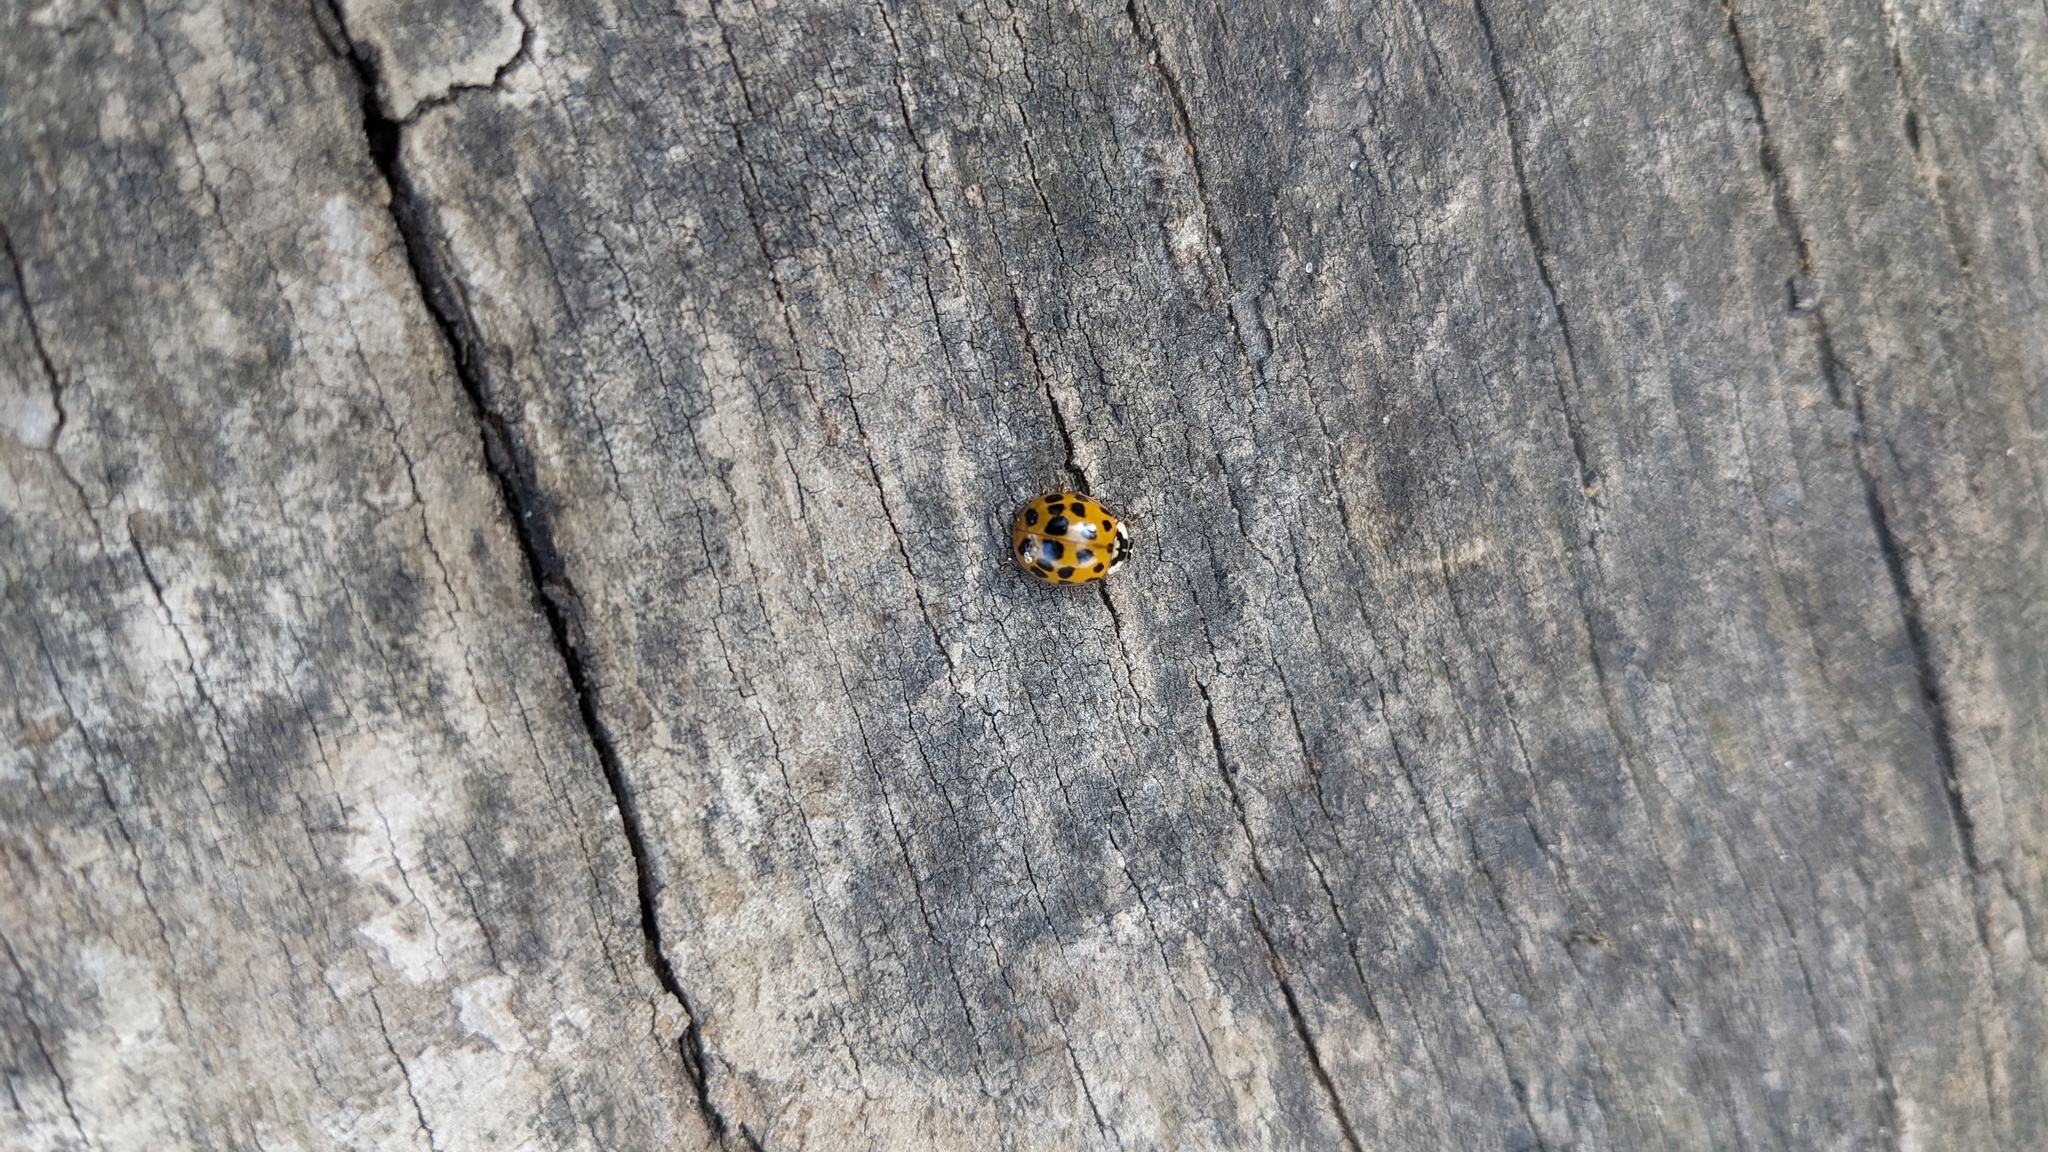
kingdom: Animalia
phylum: Arthropoda
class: Insecta
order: Coleoptera
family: Coccinellidae
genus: Harmonia
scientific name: Harmonia axyridis
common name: Harlequin ladybird
